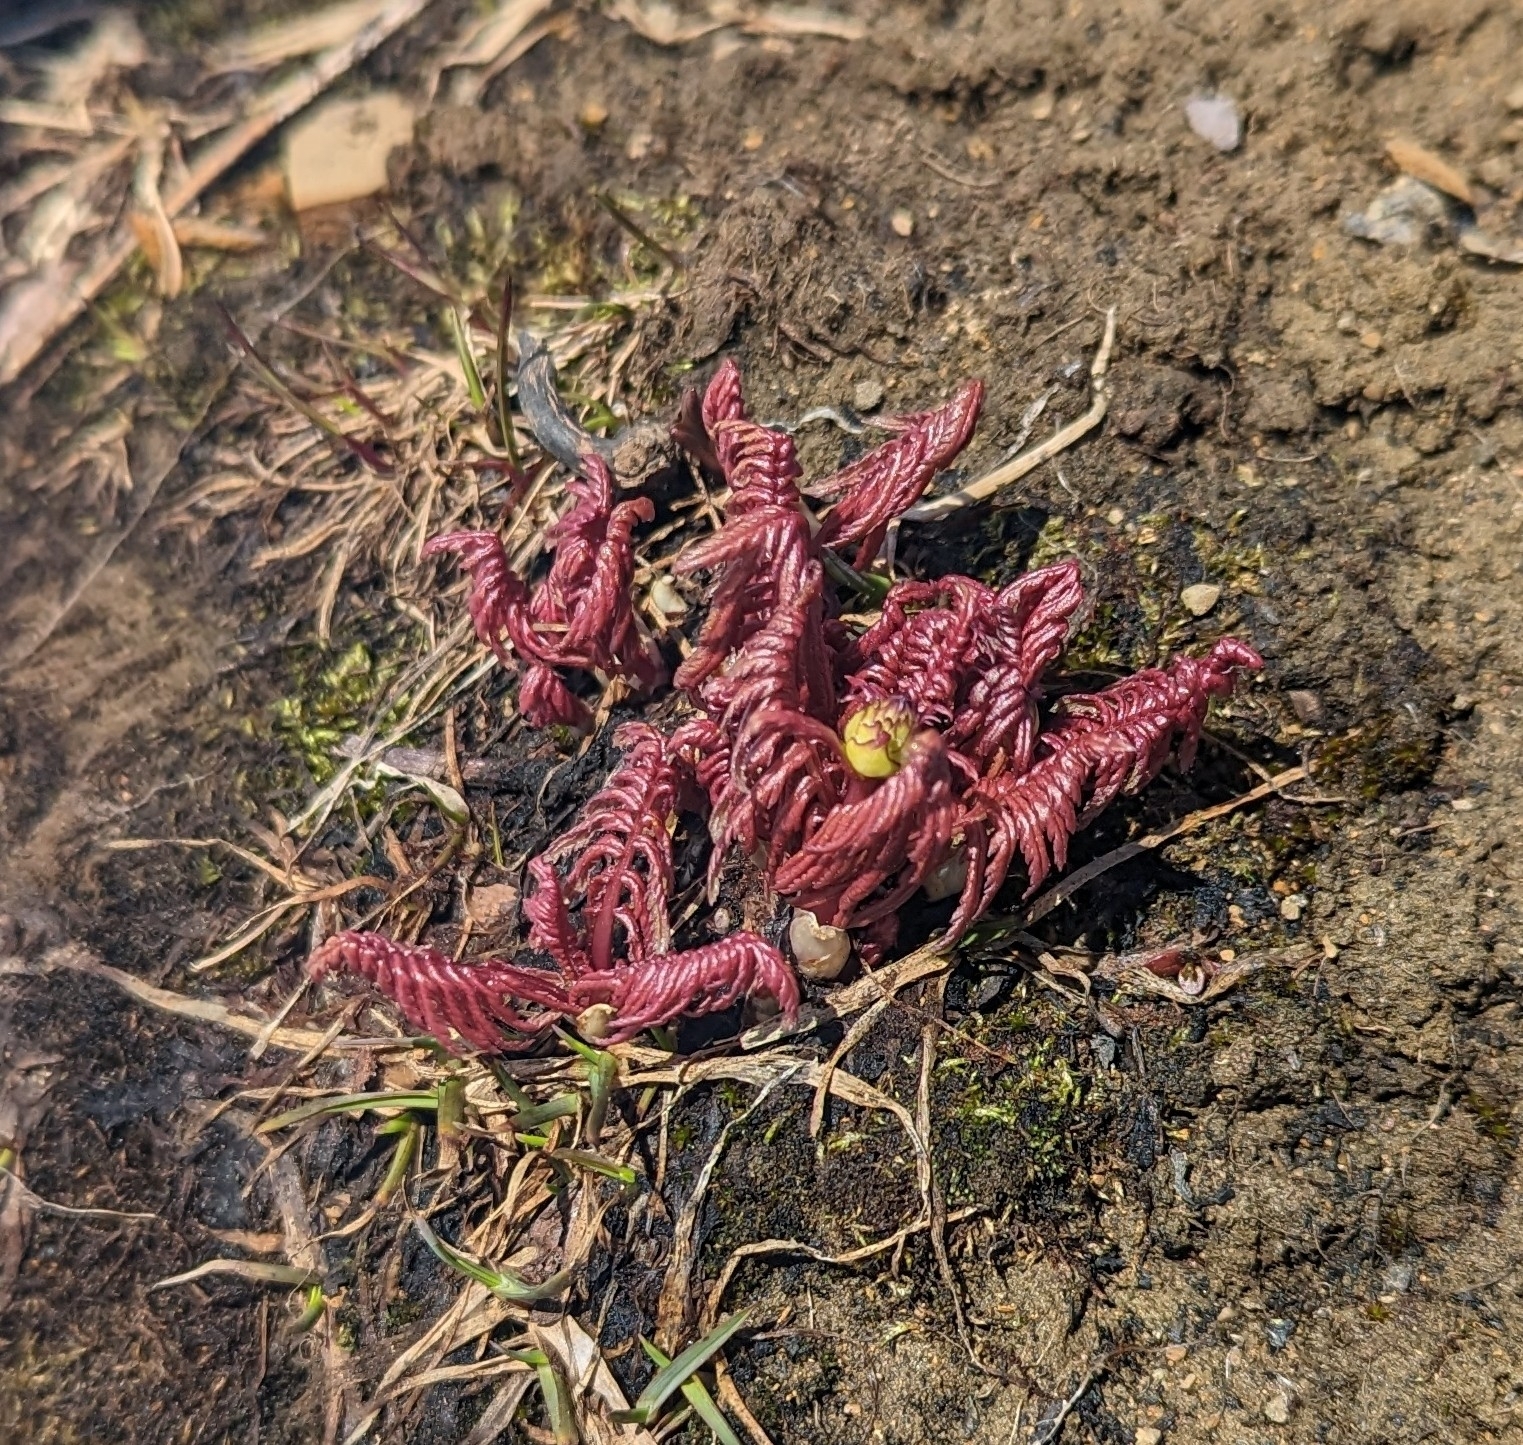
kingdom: Plantae
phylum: Tracheophyta
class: Magnoliopsida
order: Lamiales
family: Orobanchaceae
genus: Pedicularis
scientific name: Pedicularis groenlandica
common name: Elephant's-head
